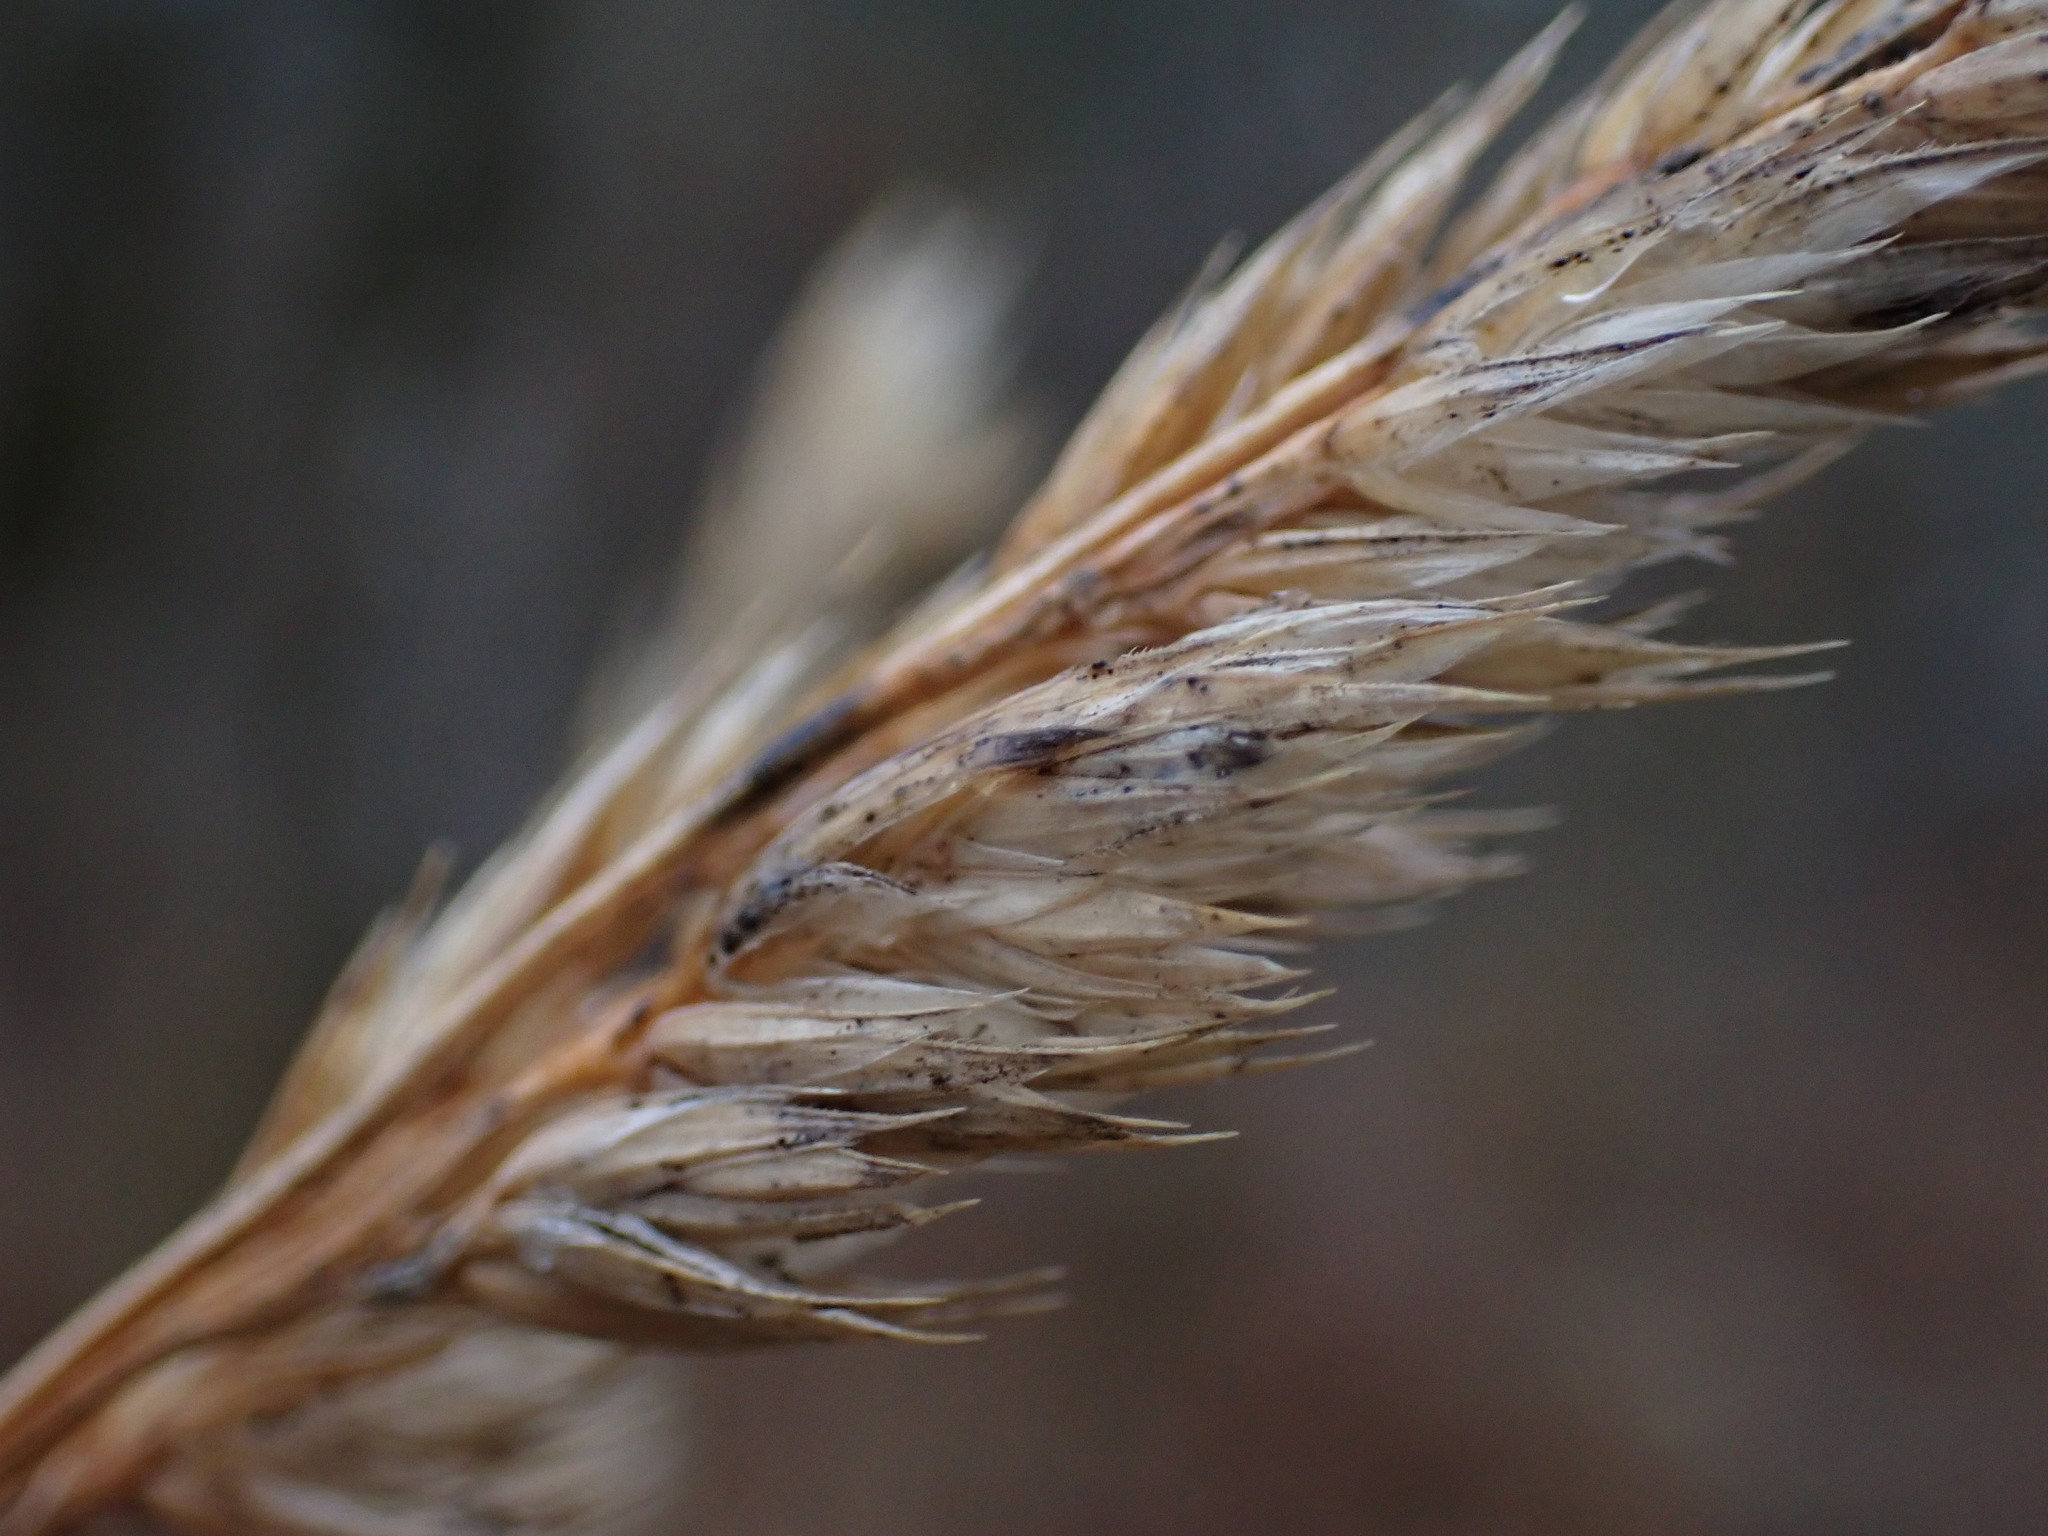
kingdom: Plantae
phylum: Tracheophyta
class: Liliopsida
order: Poales
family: Poaceae
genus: Dactylis
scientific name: Dactylis glomerata
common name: Orchardgrass
